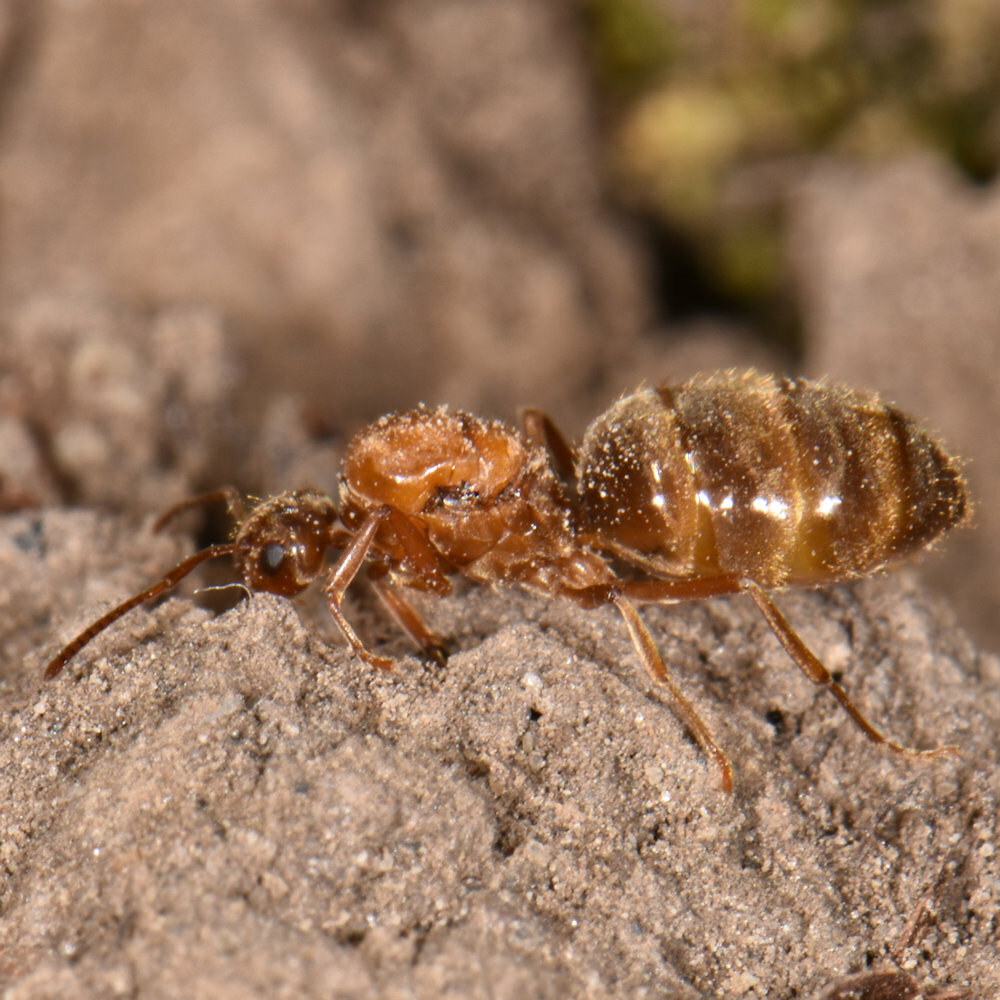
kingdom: Animalia
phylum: Arthropoda
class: Insecta
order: Hymenoptera
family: Formicidae
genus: Prenolepis
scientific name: Prenolepis imparis
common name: Small honey ant
